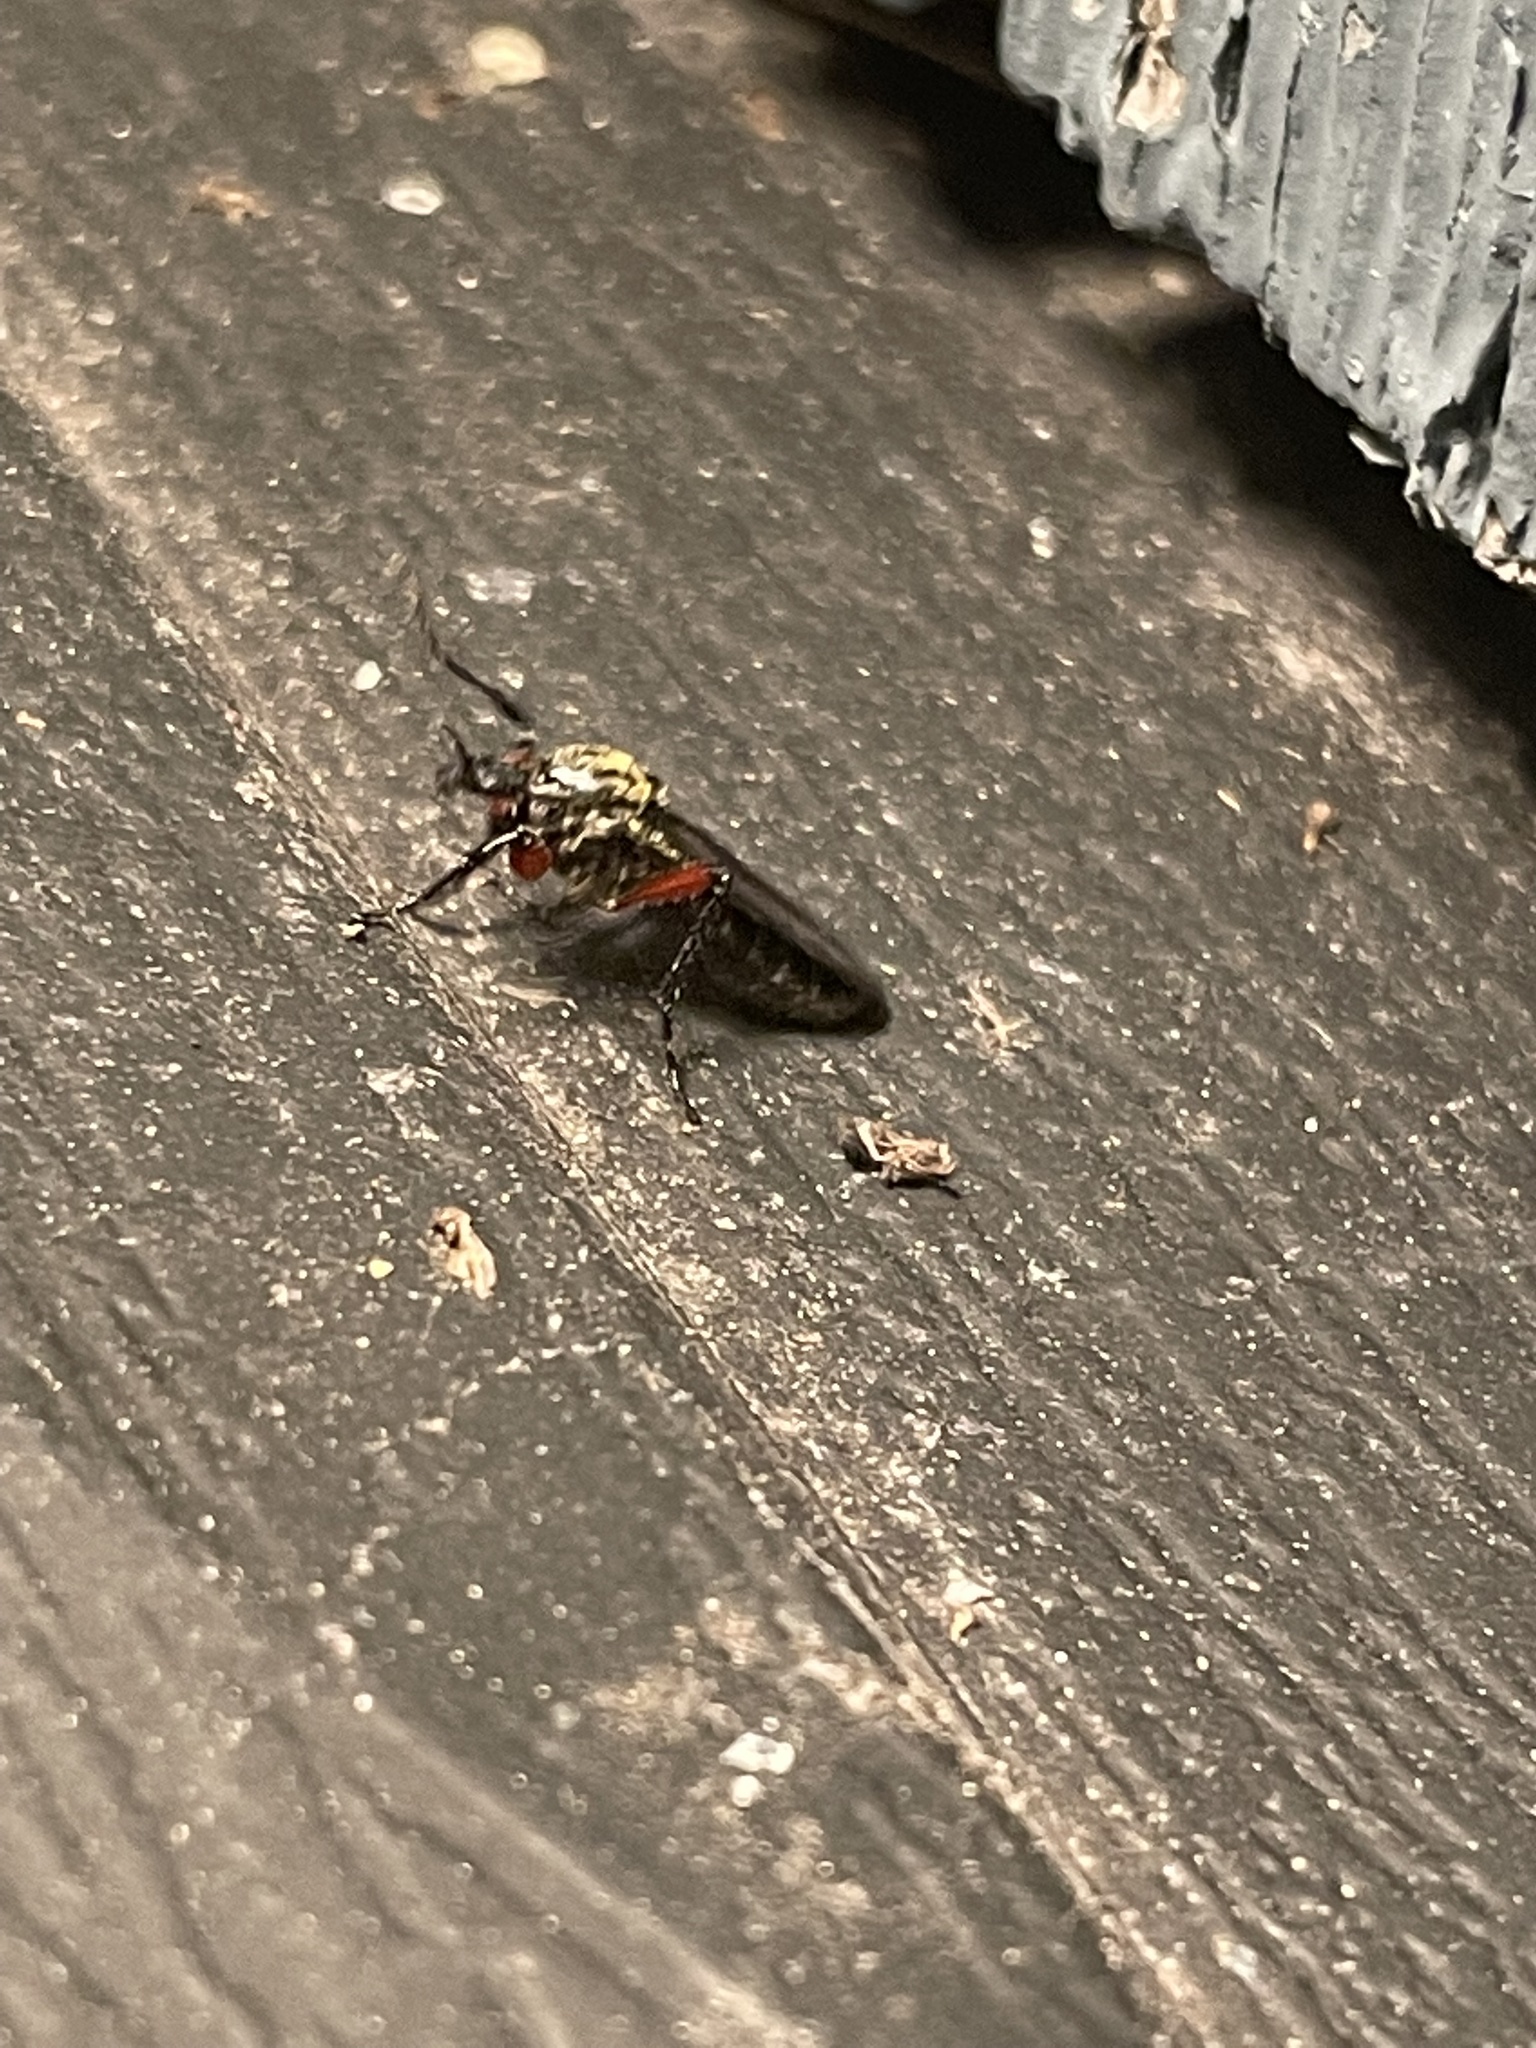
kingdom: Animalia
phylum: Arthropoda
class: Insecta
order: Diptera
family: Bibionidae
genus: Bibio
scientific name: Bibio femoratus
